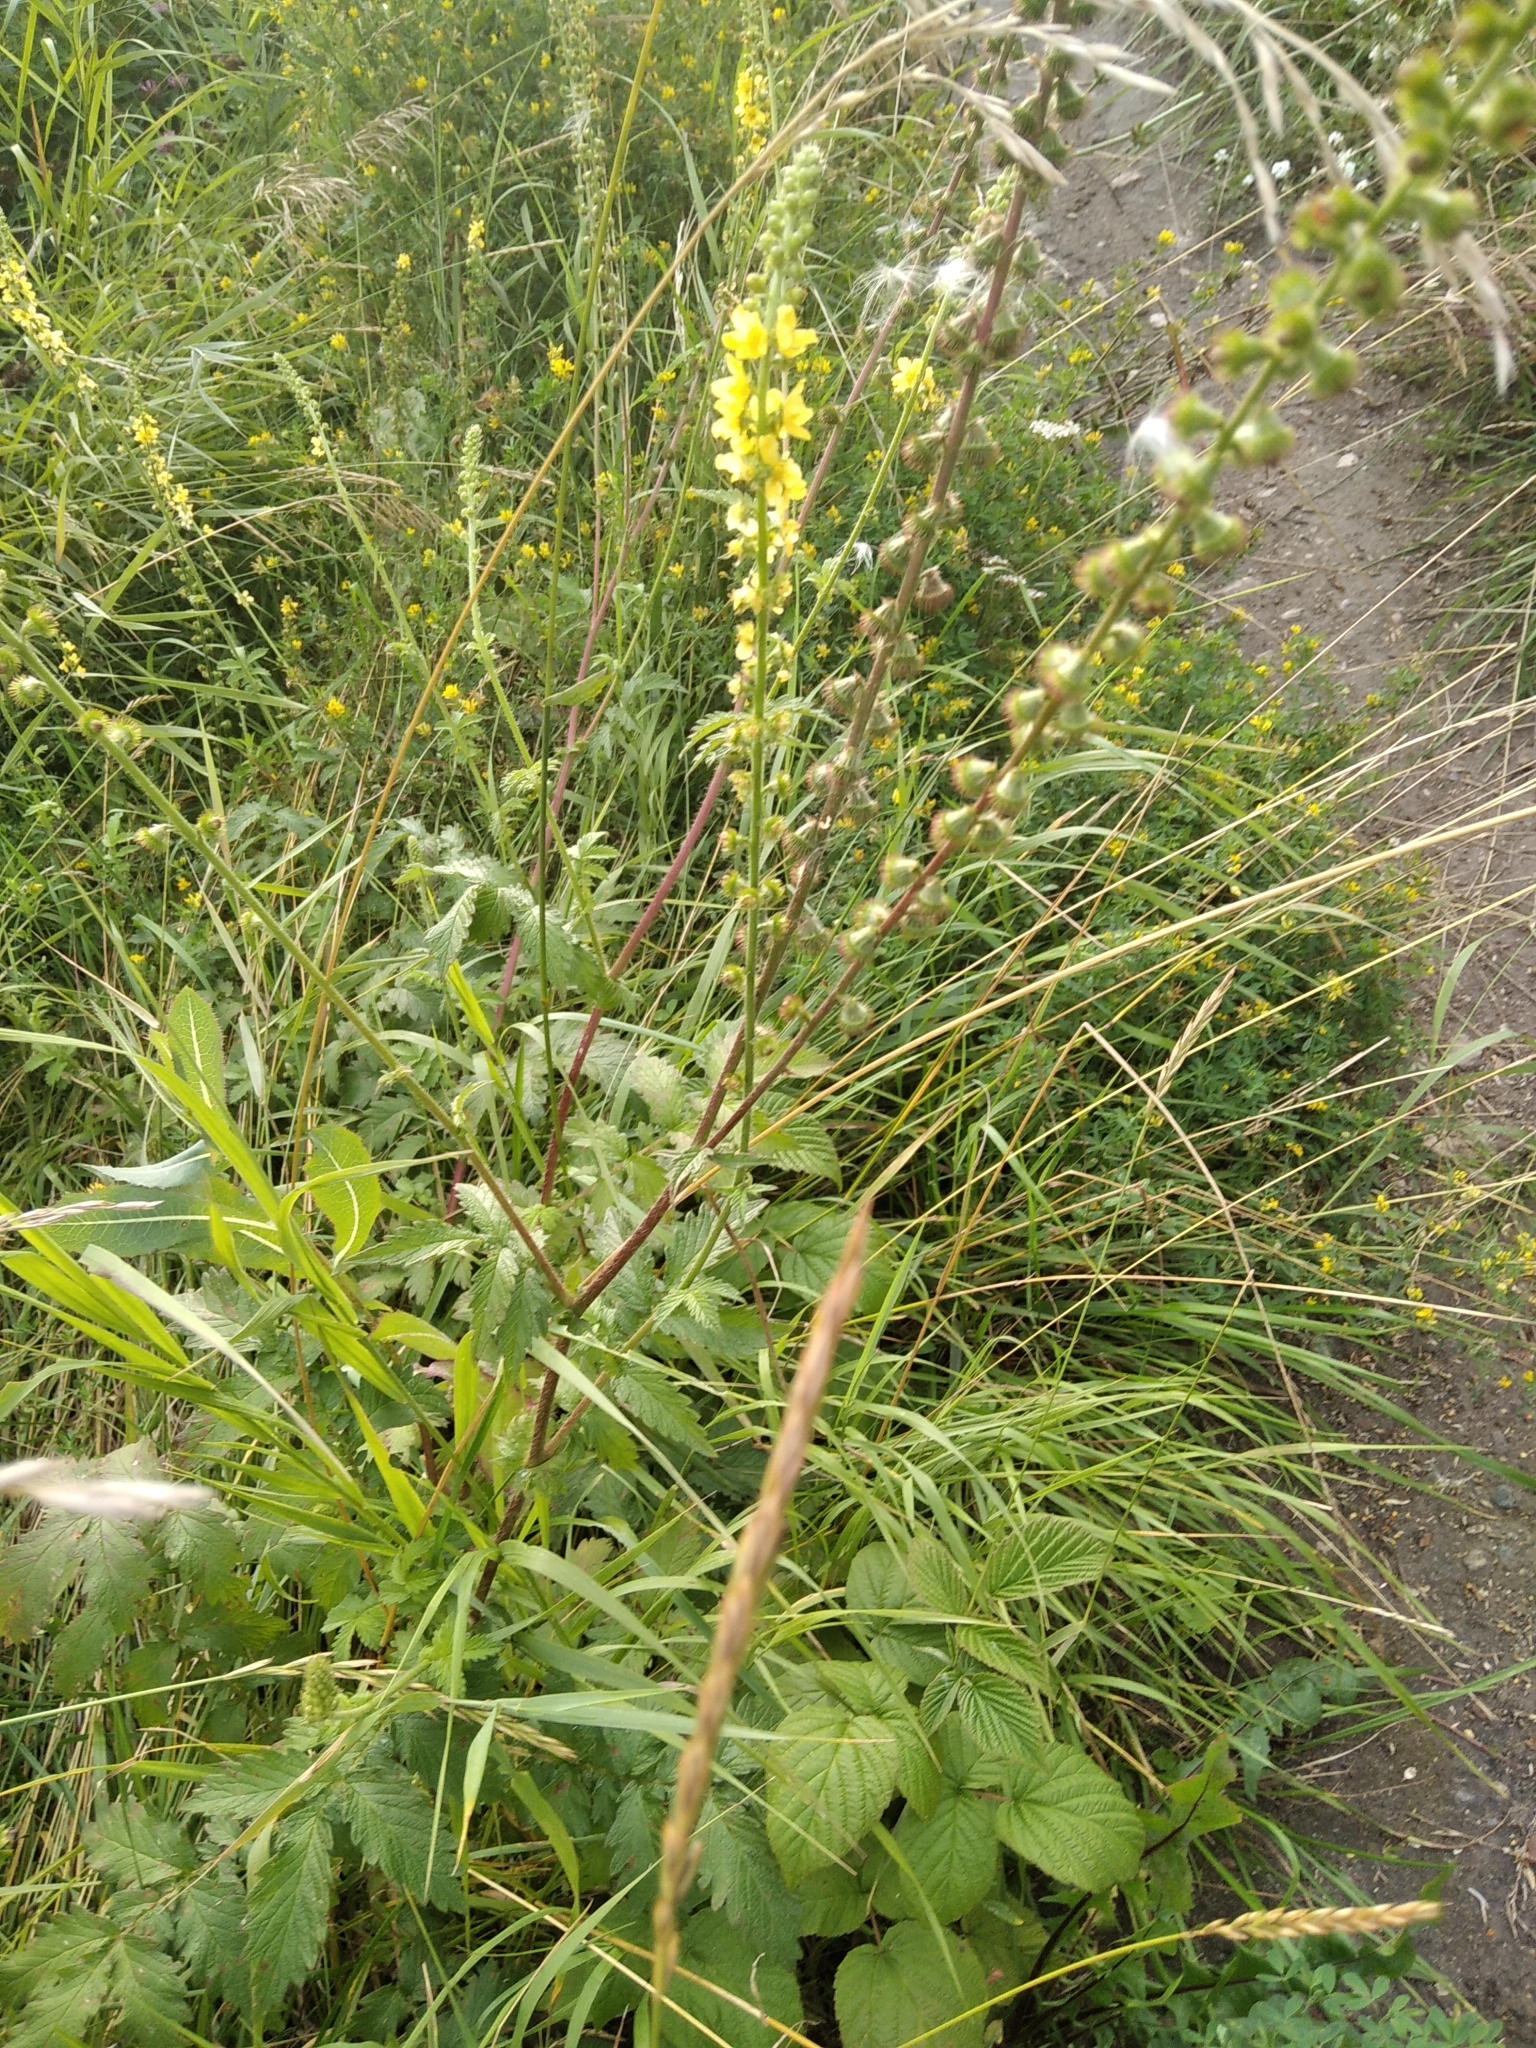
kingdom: Plantae
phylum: Tracheophyta
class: Magnoliopsida
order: Rosales
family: Rosaceae
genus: Agrimonia
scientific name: Agrimonia eupatoria
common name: Agrimony
